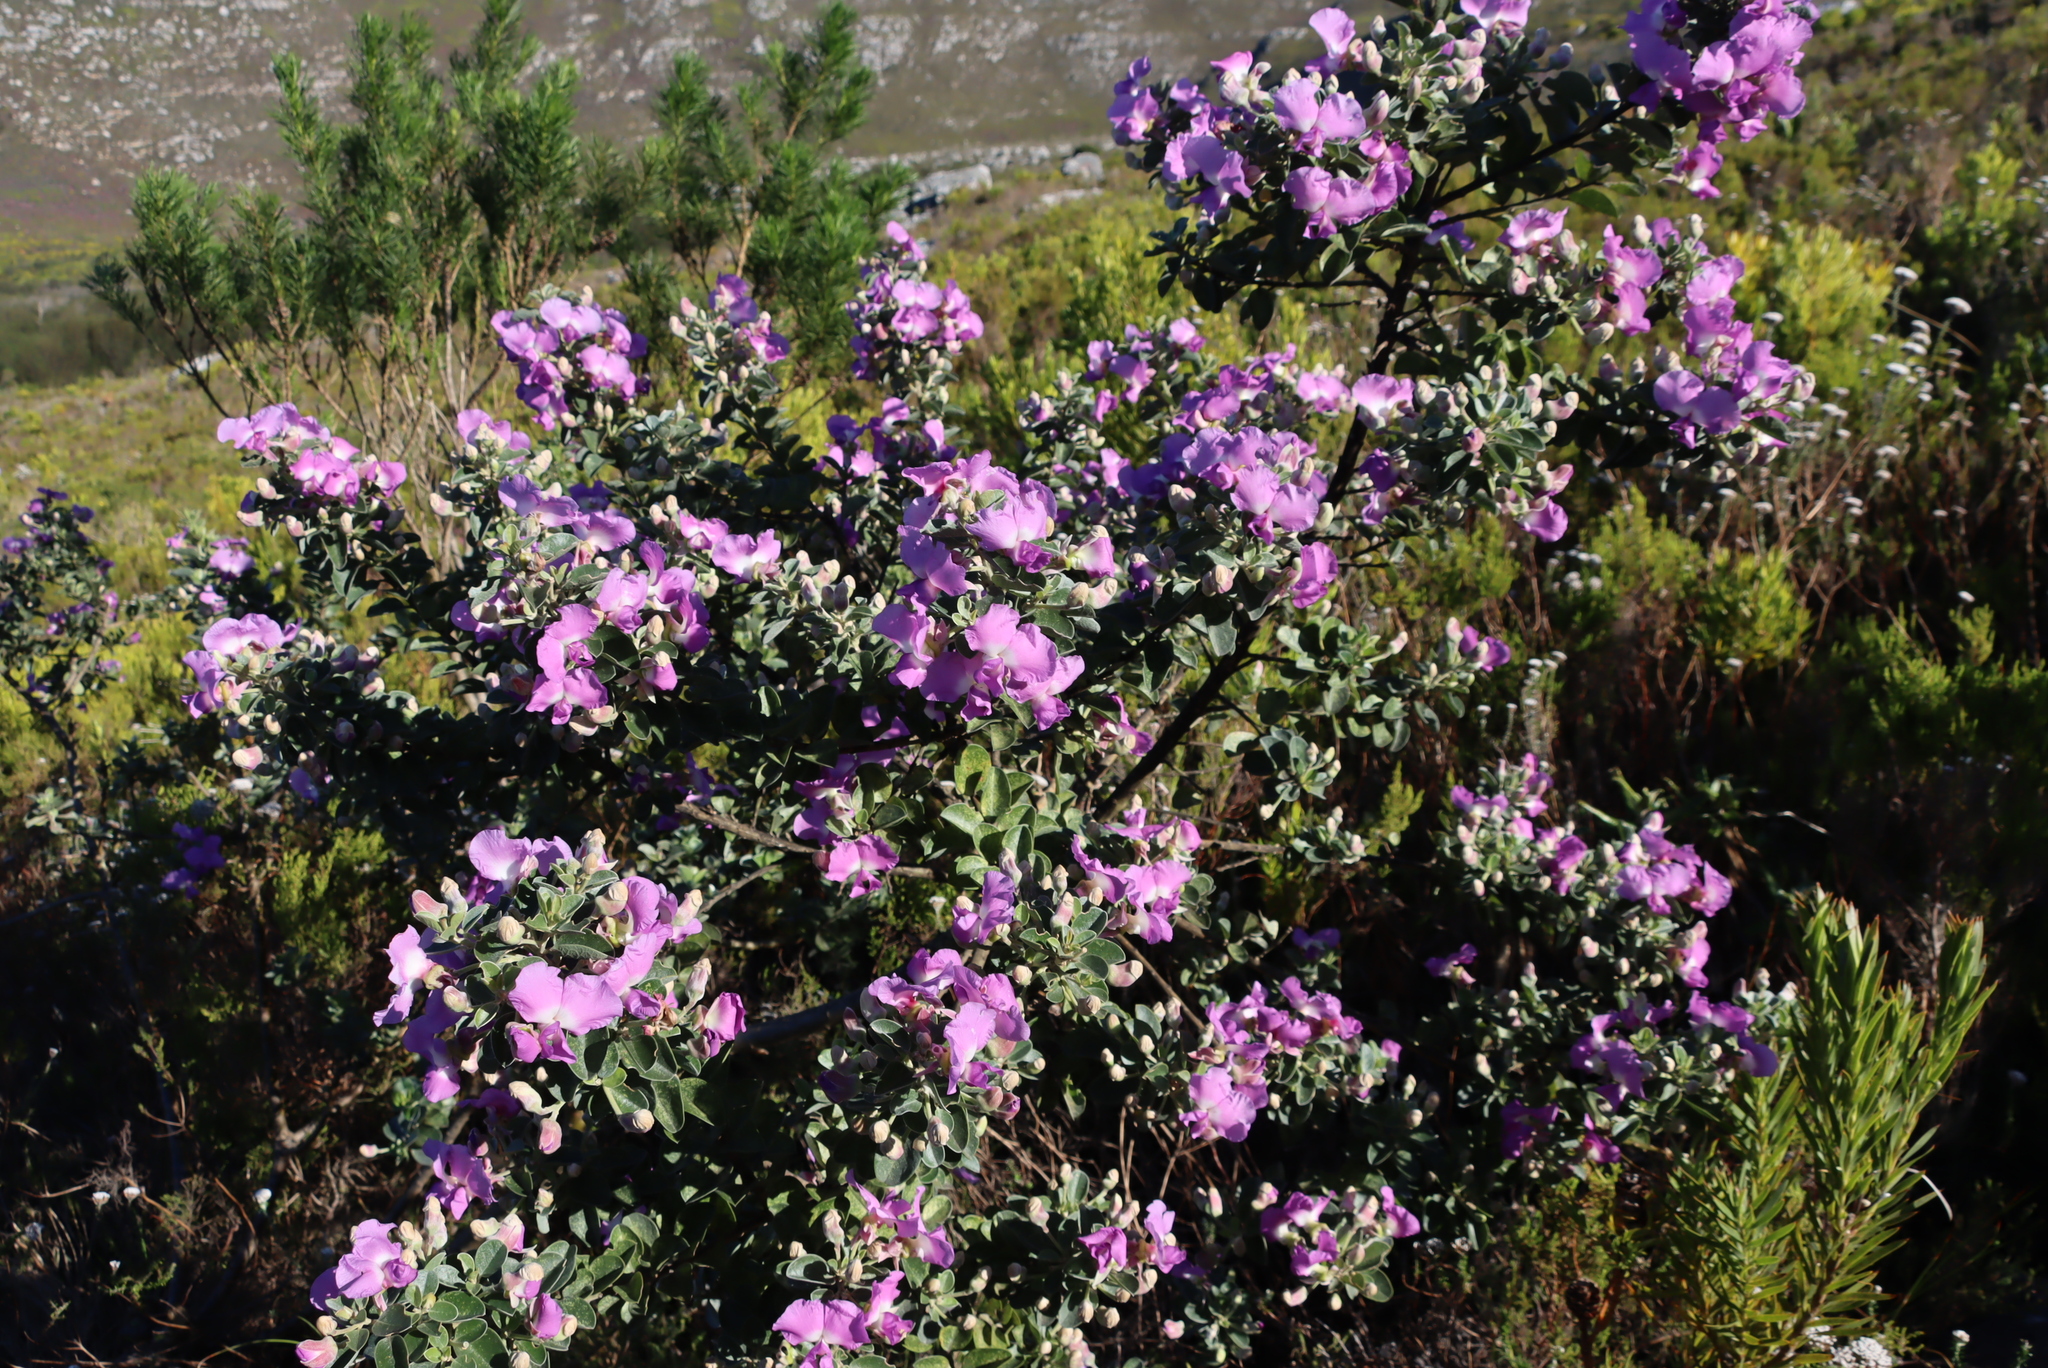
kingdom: Plantae
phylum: Tracheophyta
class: Magnoliopsida
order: Fabales
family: Fabaceae
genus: Podalyria
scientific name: Podalyria calyptrata
